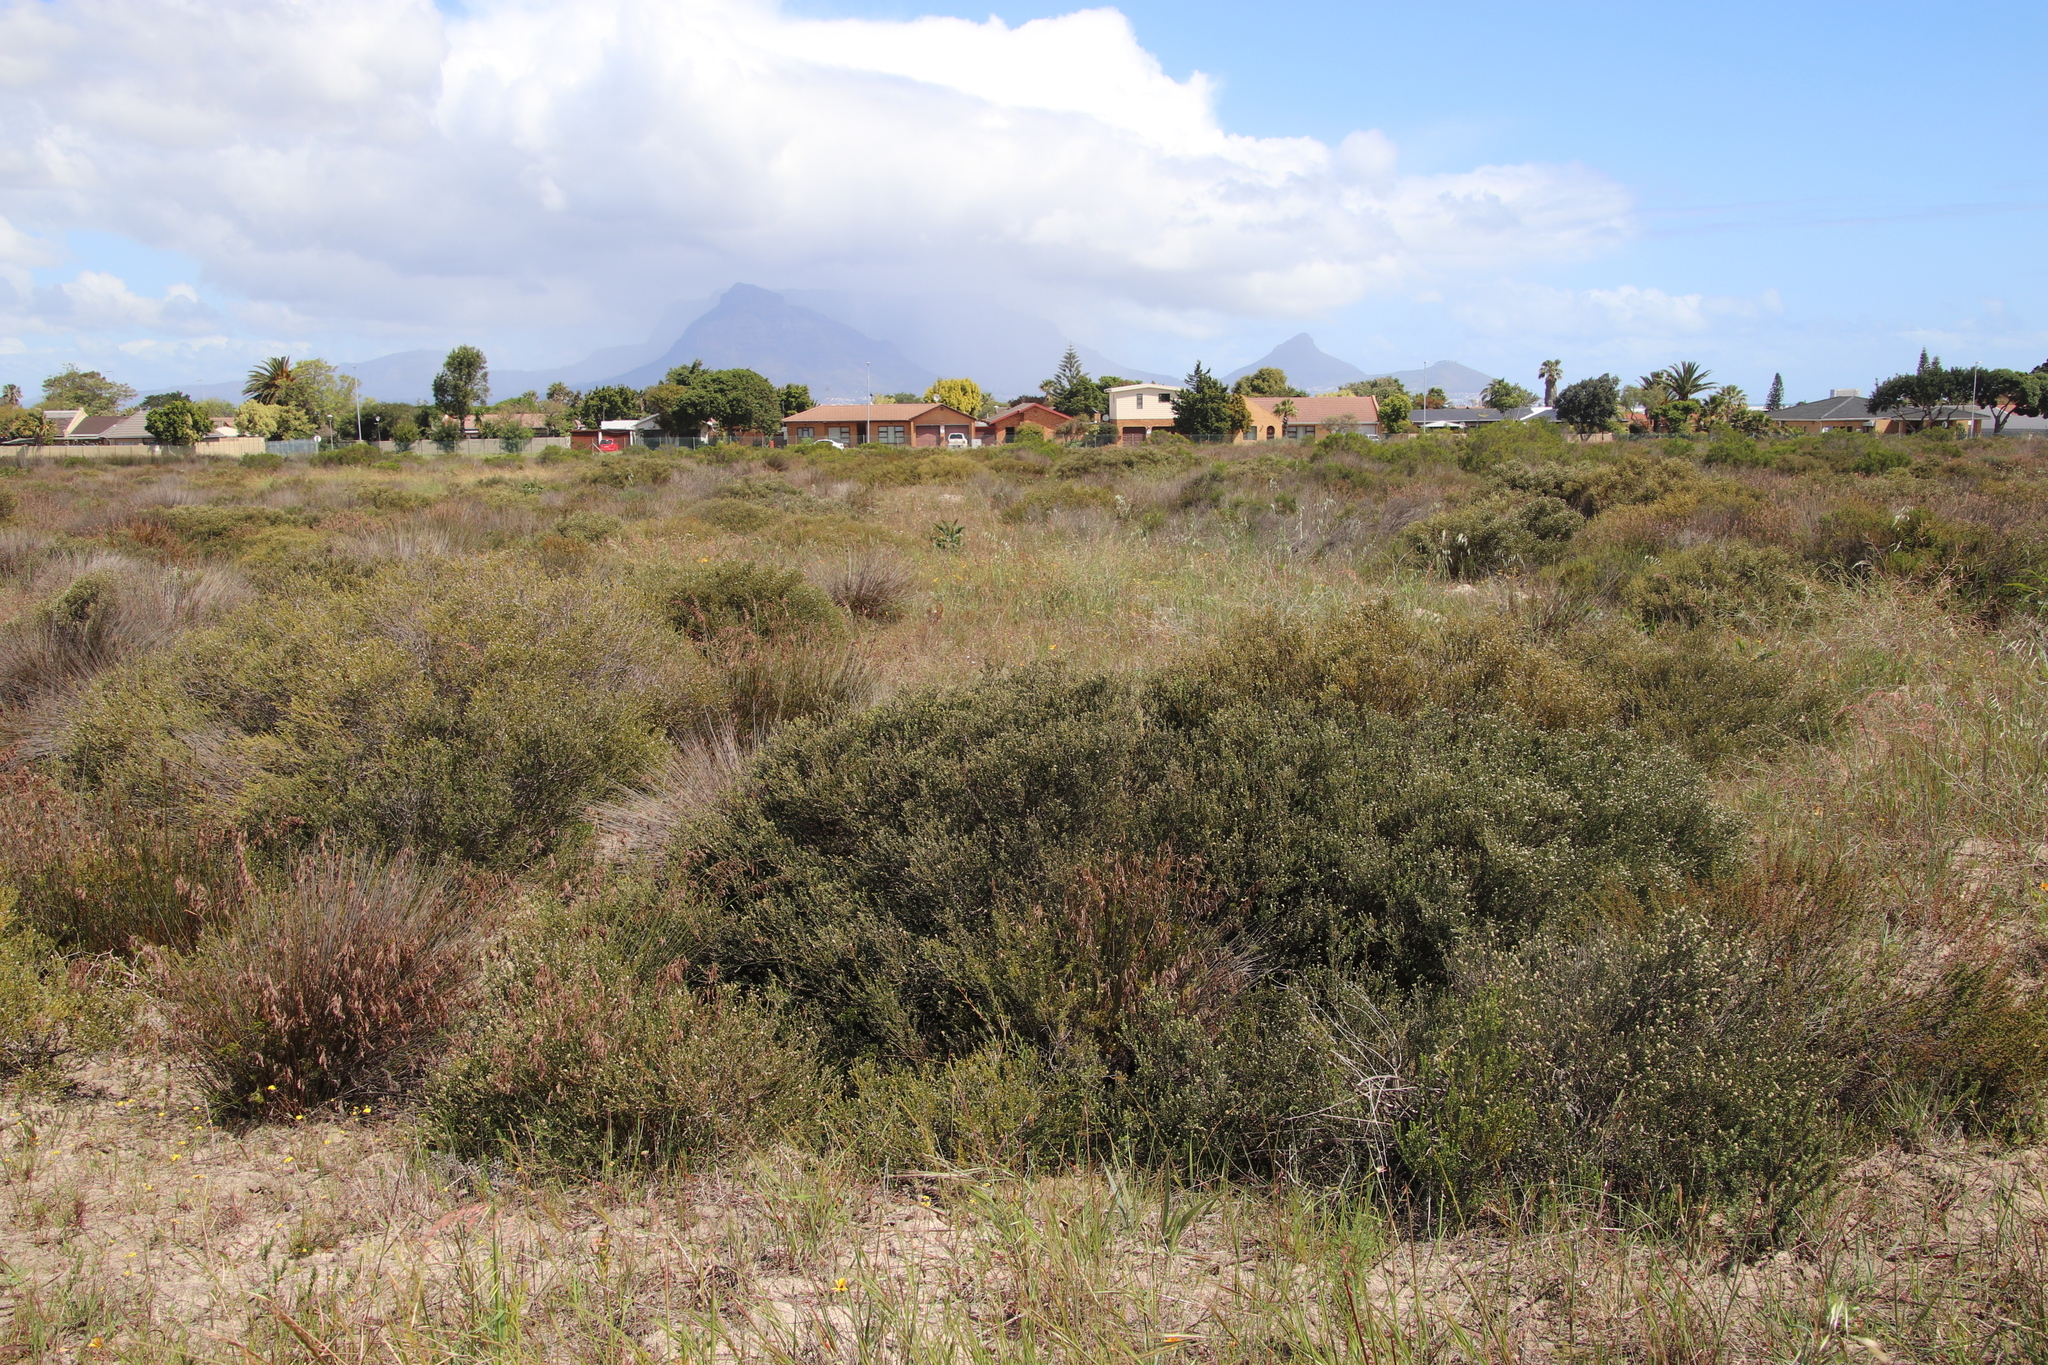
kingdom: Plantae
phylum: Tracheophyta
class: Magnoliopsida
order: Rosales
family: Rhamnaceae
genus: Phylica
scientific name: Phylica cephalantha
